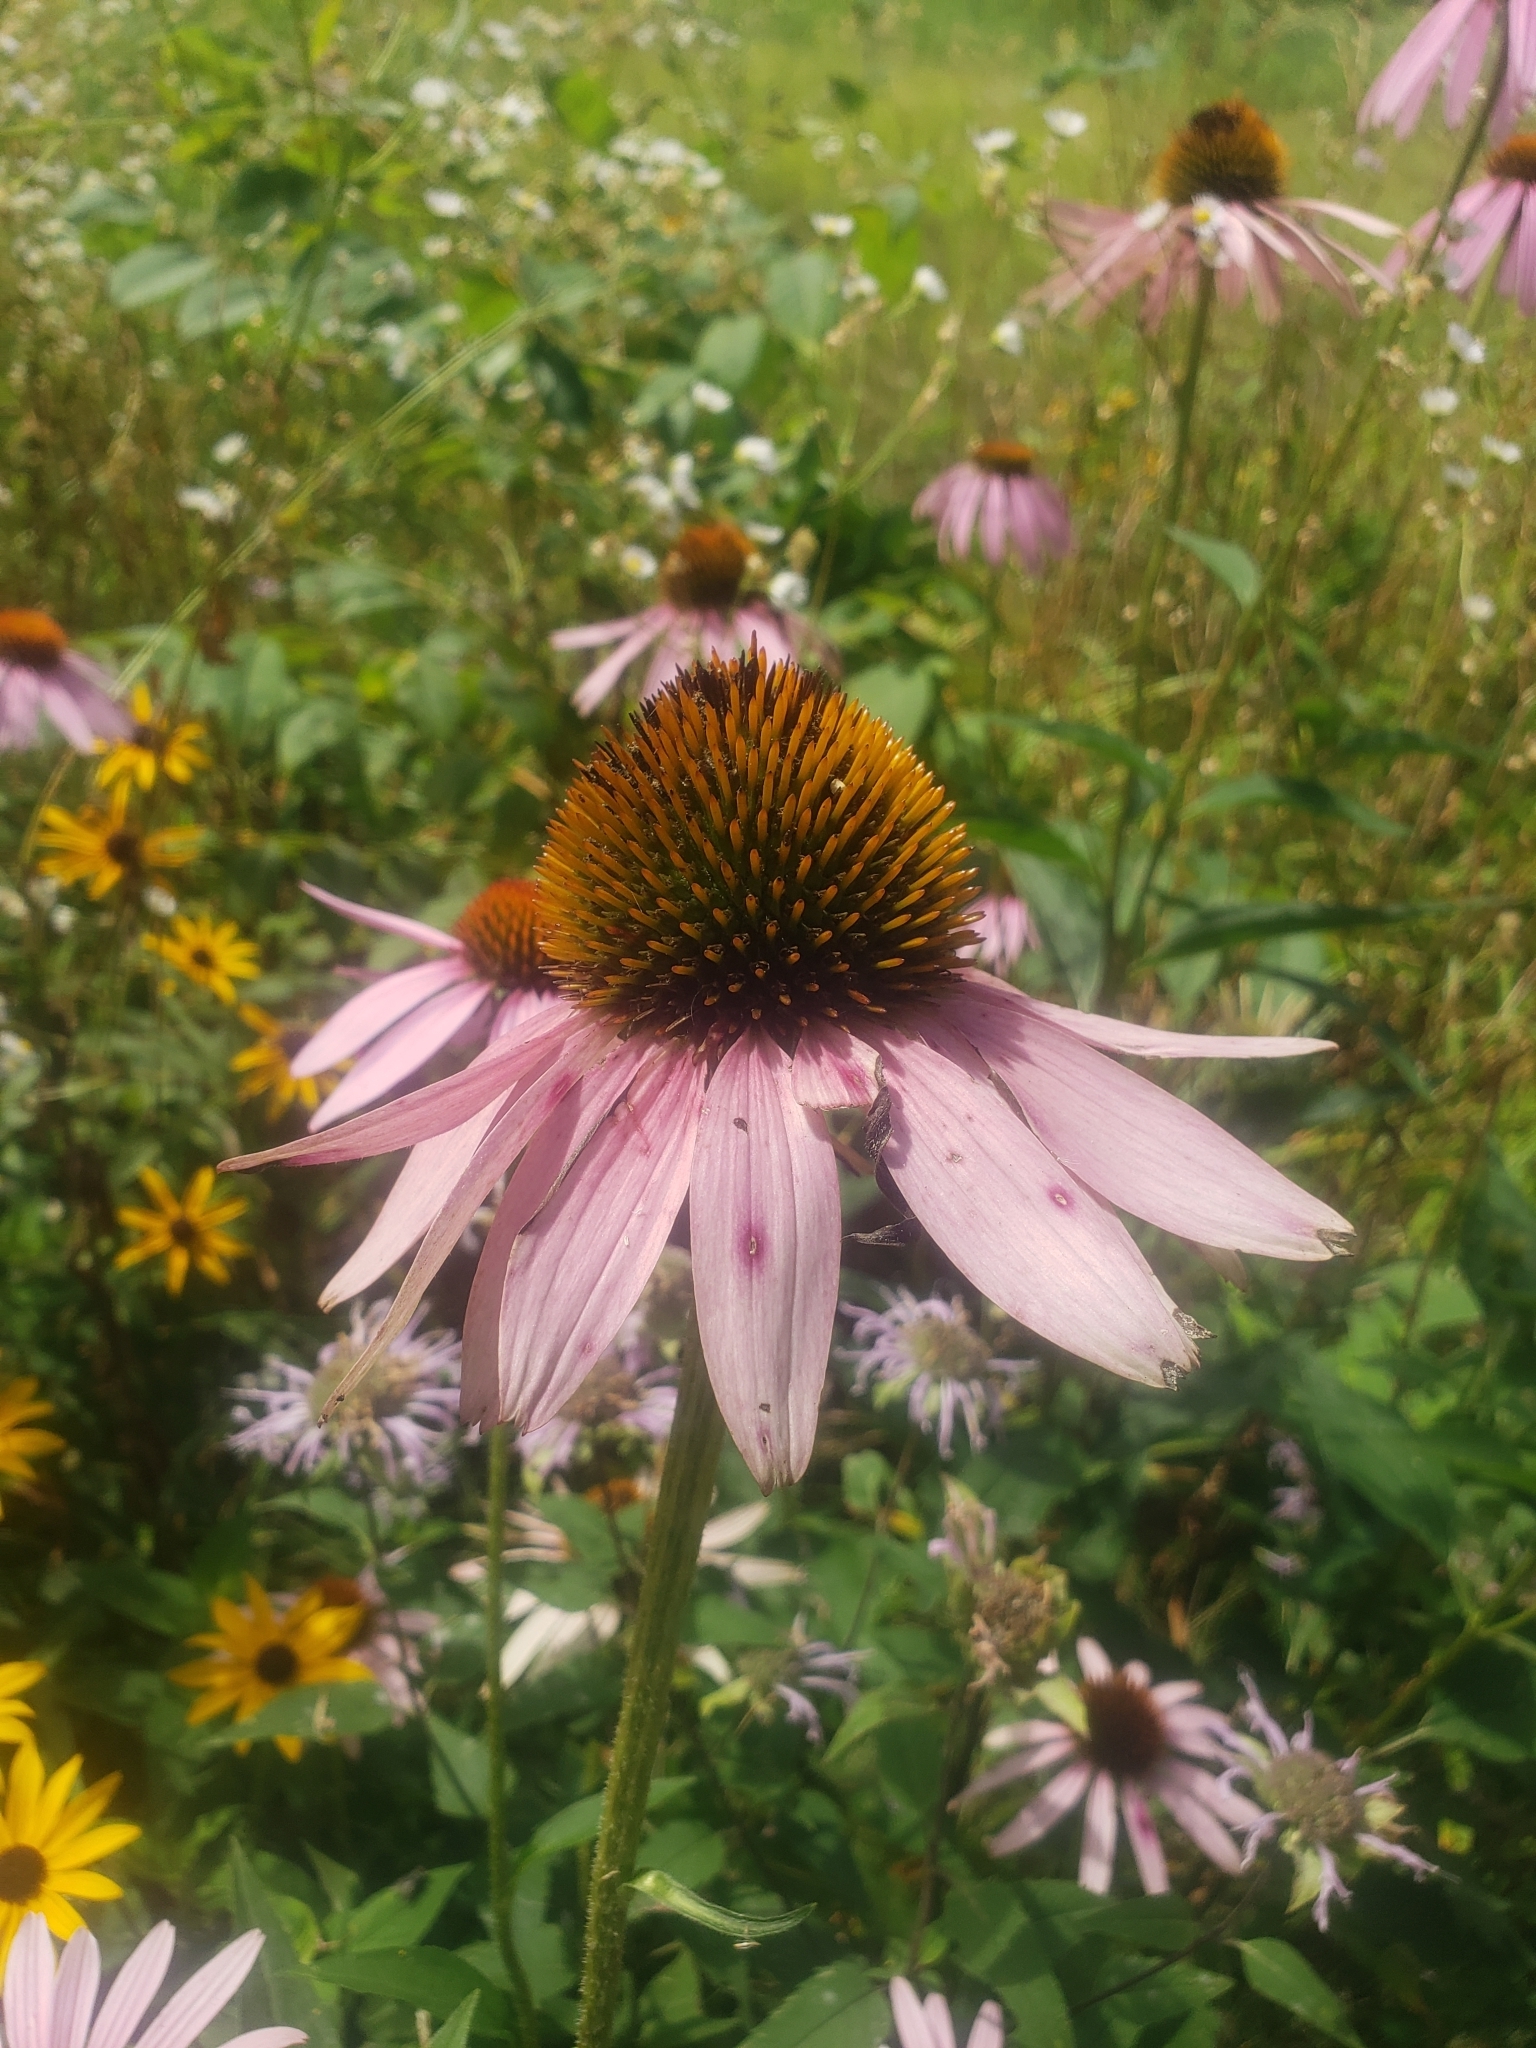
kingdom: Plantae
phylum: Tracheophyta
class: Magnoliopsida
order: Asterales
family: Asteraceae
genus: Echinacea
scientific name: Echinacea purpurea
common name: Broad-leaved purple coneflower
